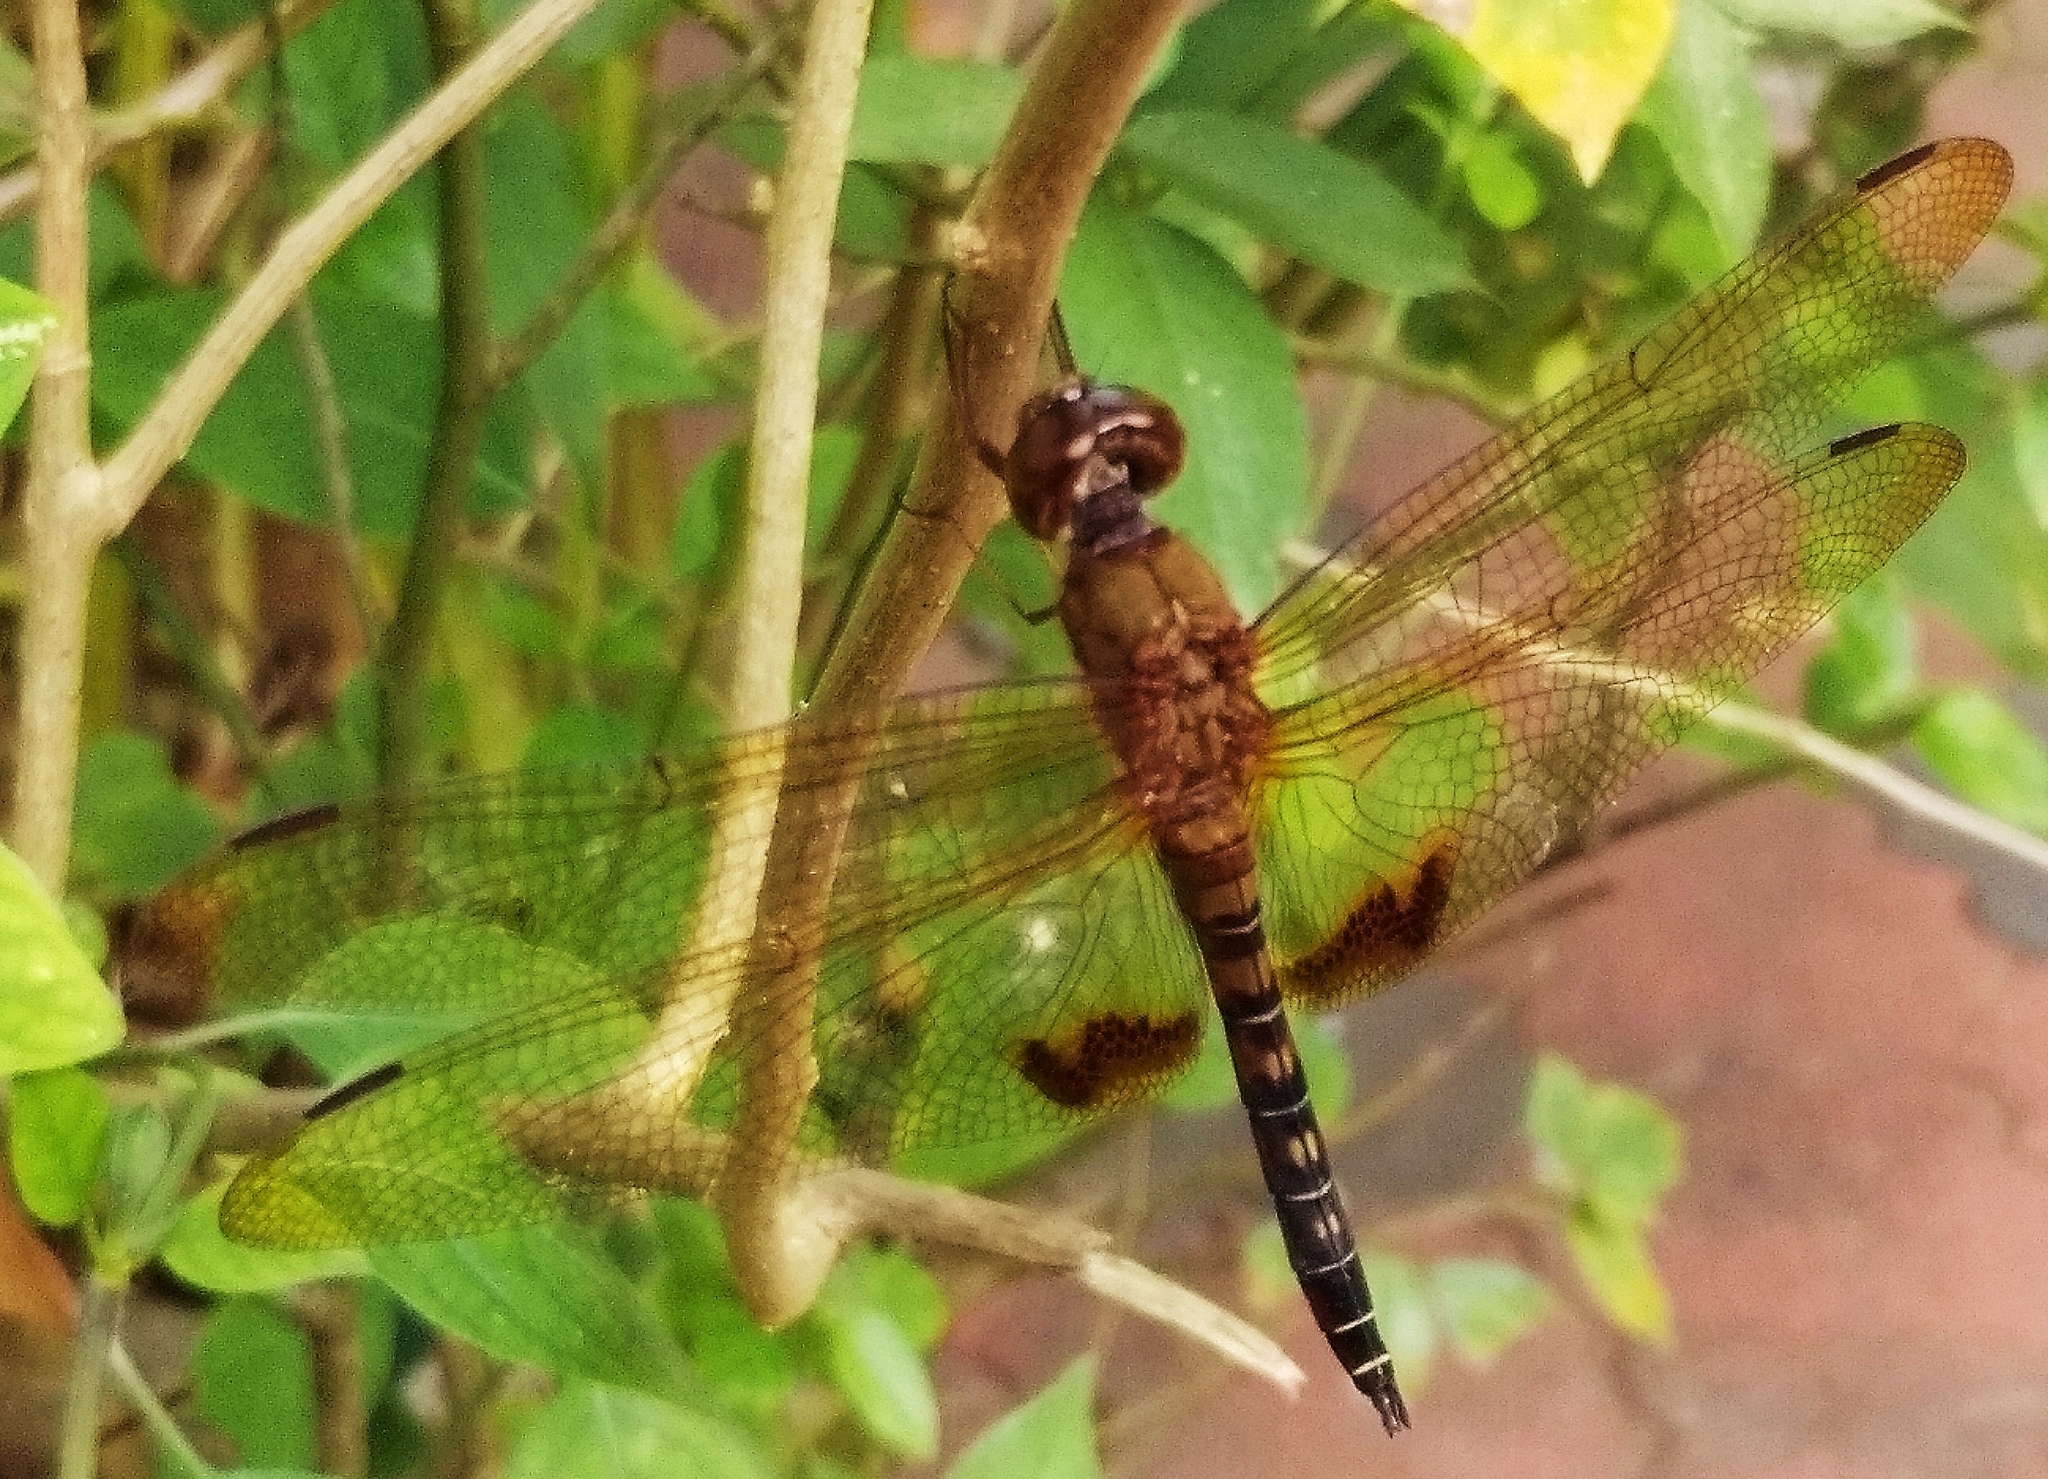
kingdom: Animalia
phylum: Arthropoda
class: Insecta
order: Odonata
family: Libellulidae
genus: Hydrobasileus
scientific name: Hydrobasileus croceus
